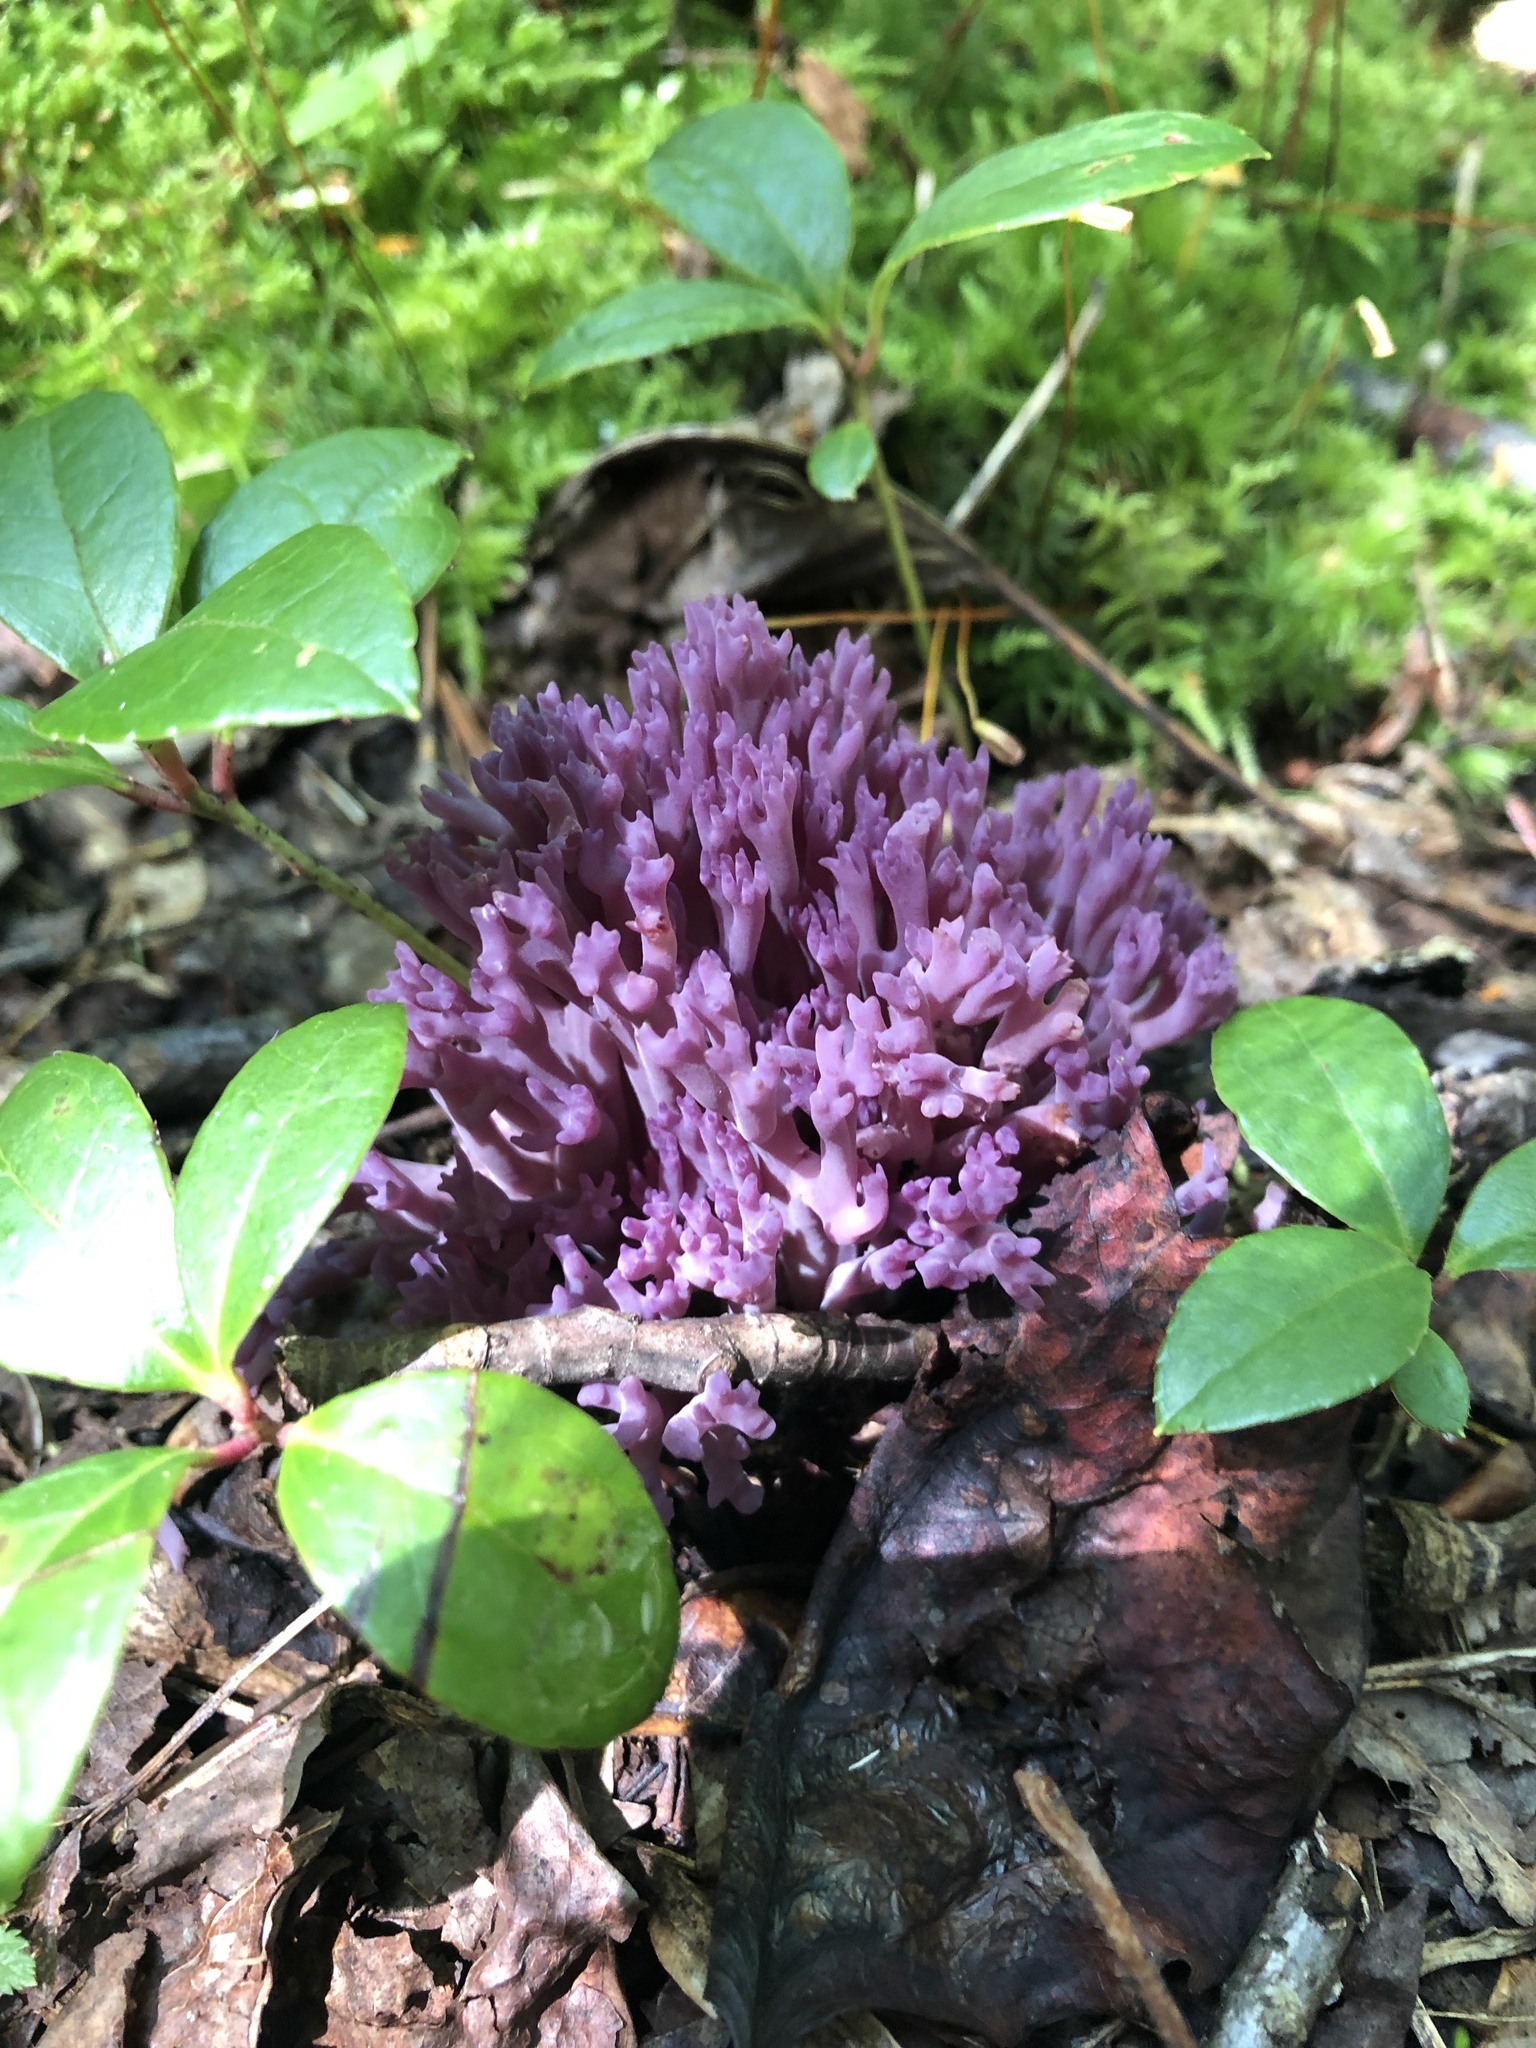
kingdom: Fungi
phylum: Basidiomycota
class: Agaricomycetes
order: Agaricales
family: Clavariaceae
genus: Clavaria
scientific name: Clavaria zollingeri
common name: Violet coral
